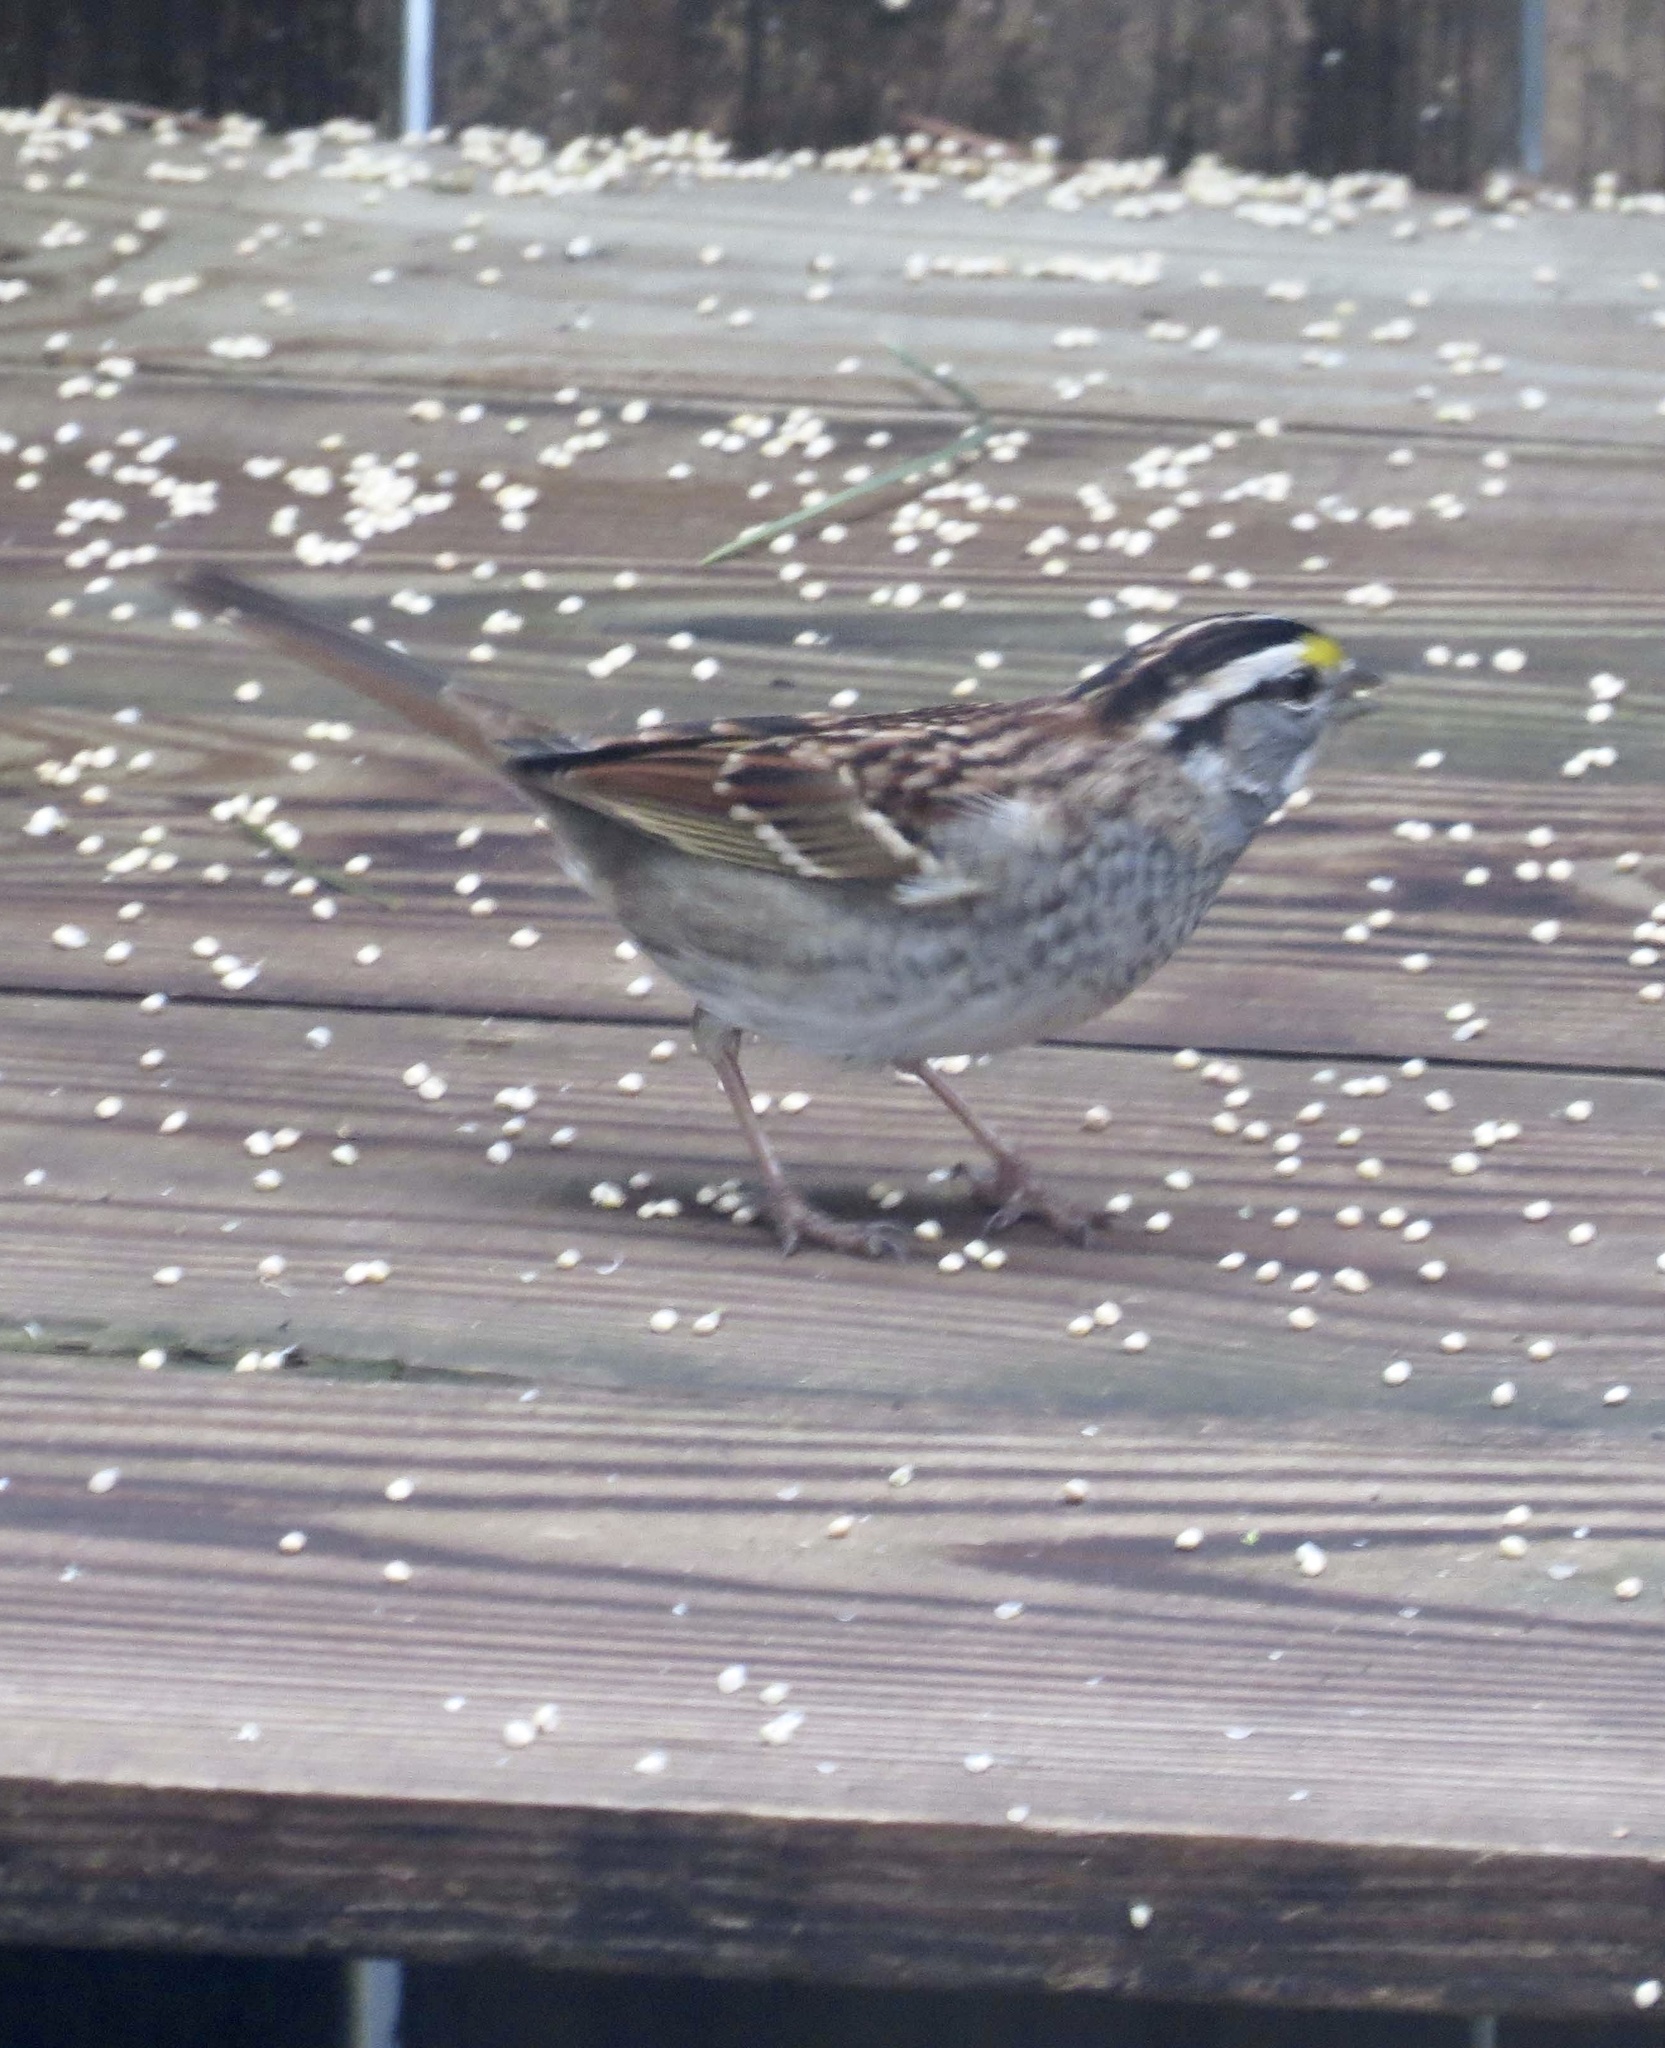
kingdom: Animalia
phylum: Chordata
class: Aves
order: Passeriformes
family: Passerellidae
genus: Zonotrichia
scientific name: Zonotrichia albicollis
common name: White-throated sparrow
